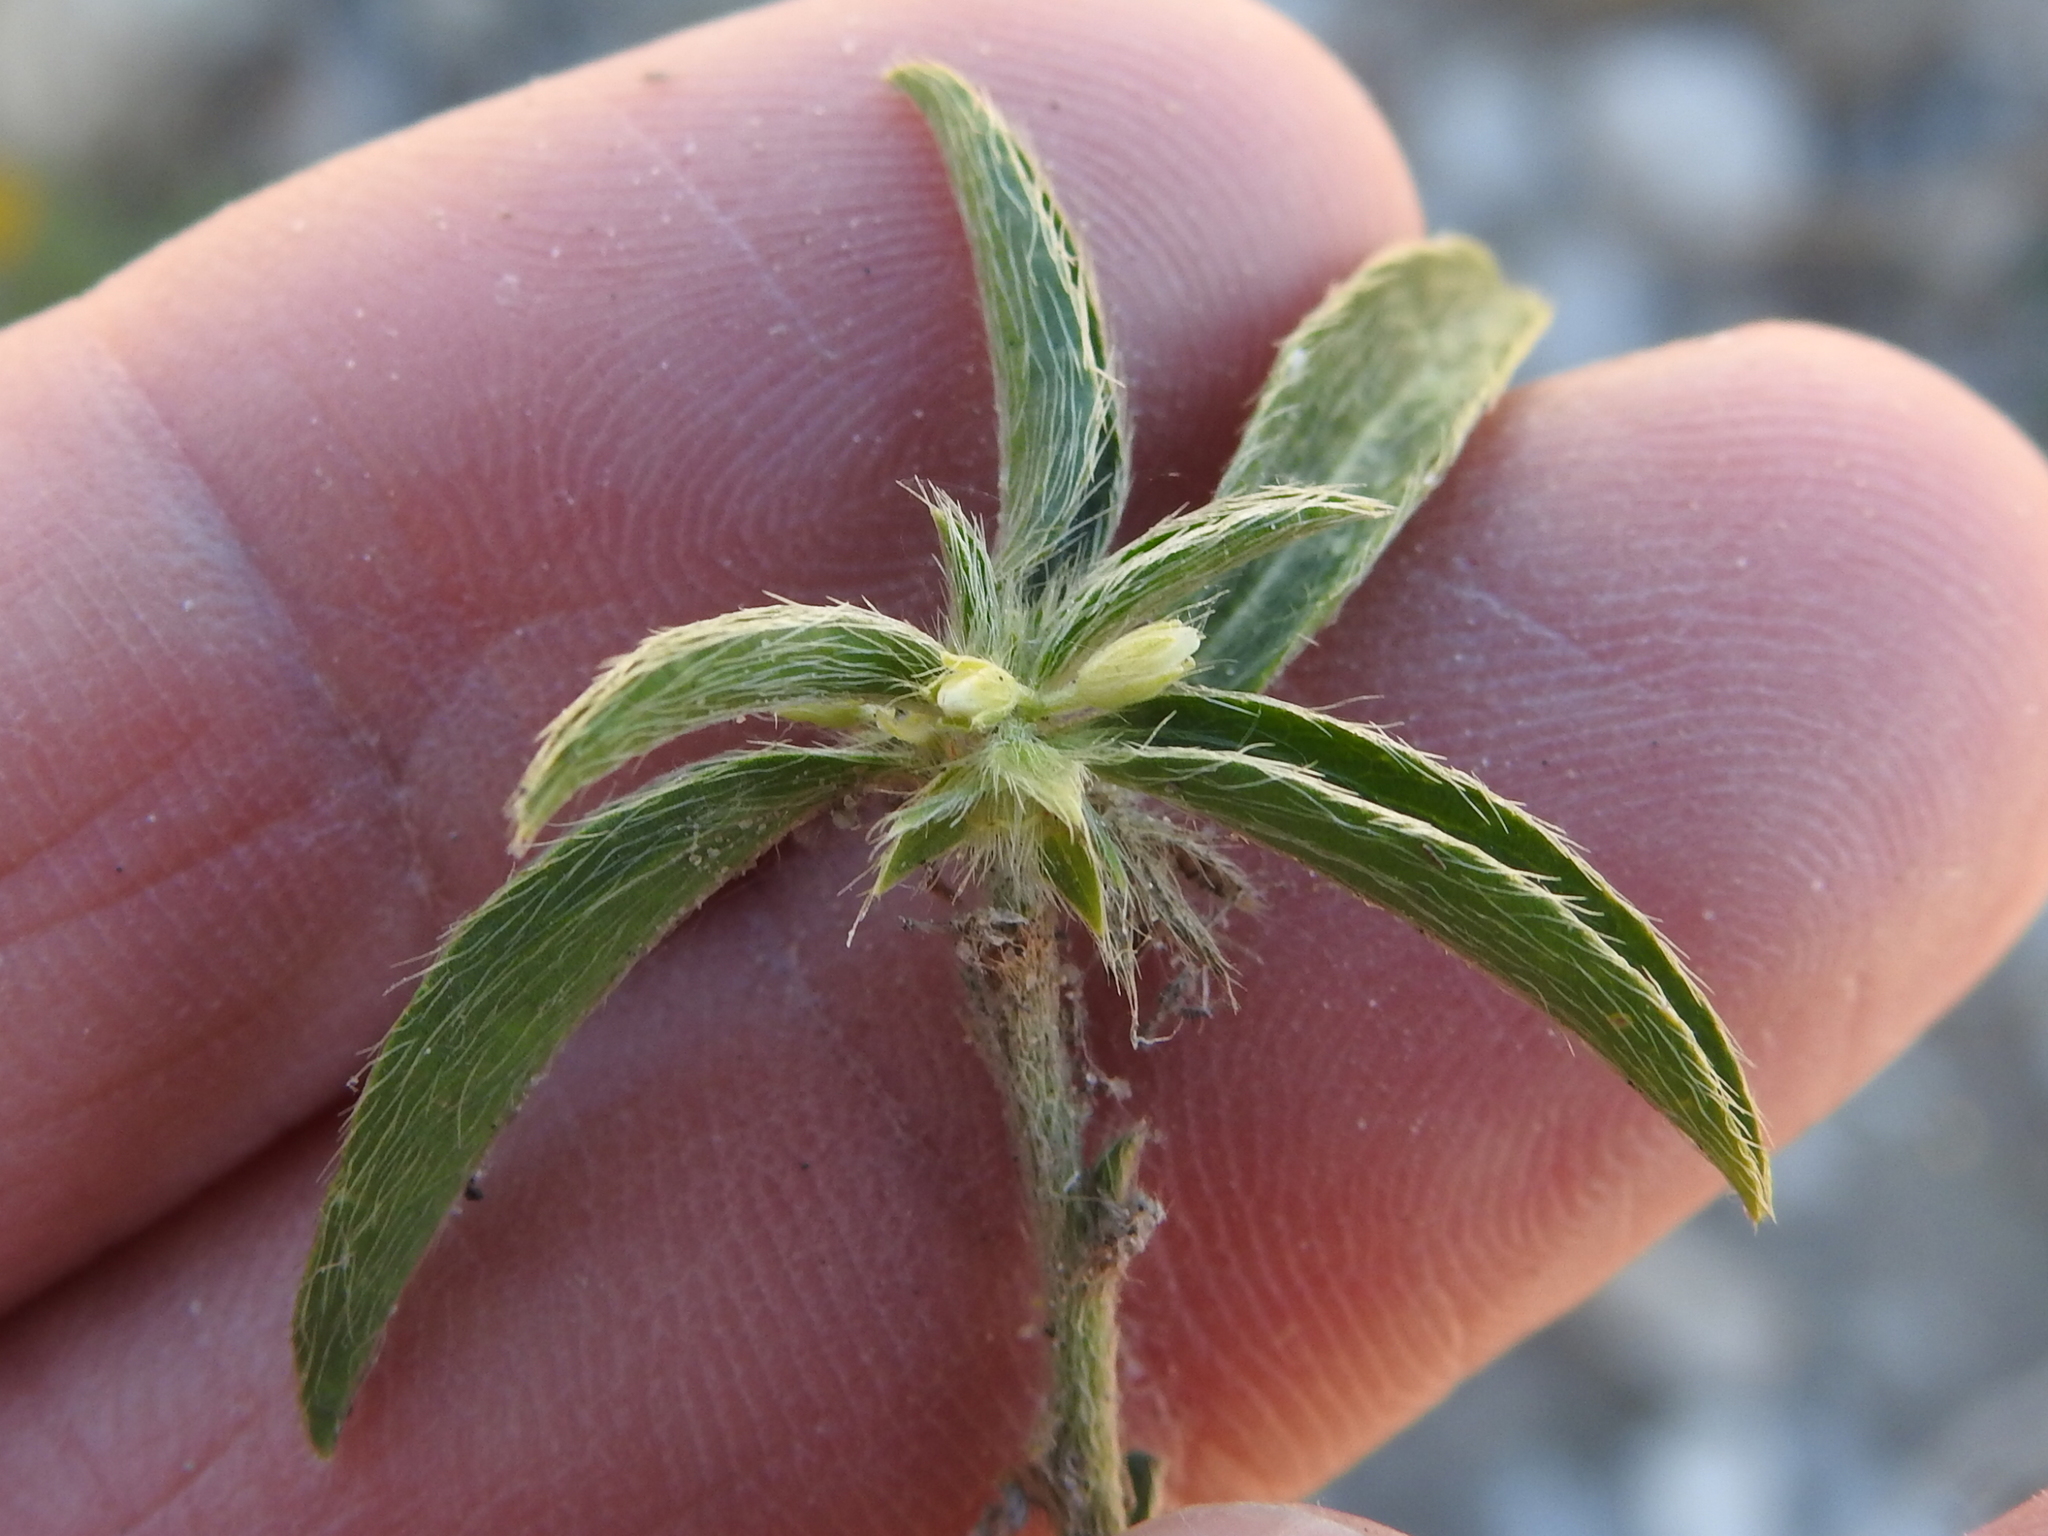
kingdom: Plantae
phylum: Tracheophyta
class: Magnoliopsida
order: Malpighiales
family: Euphorbiaceae
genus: Ditaxis
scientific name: Ditaxis serrata
